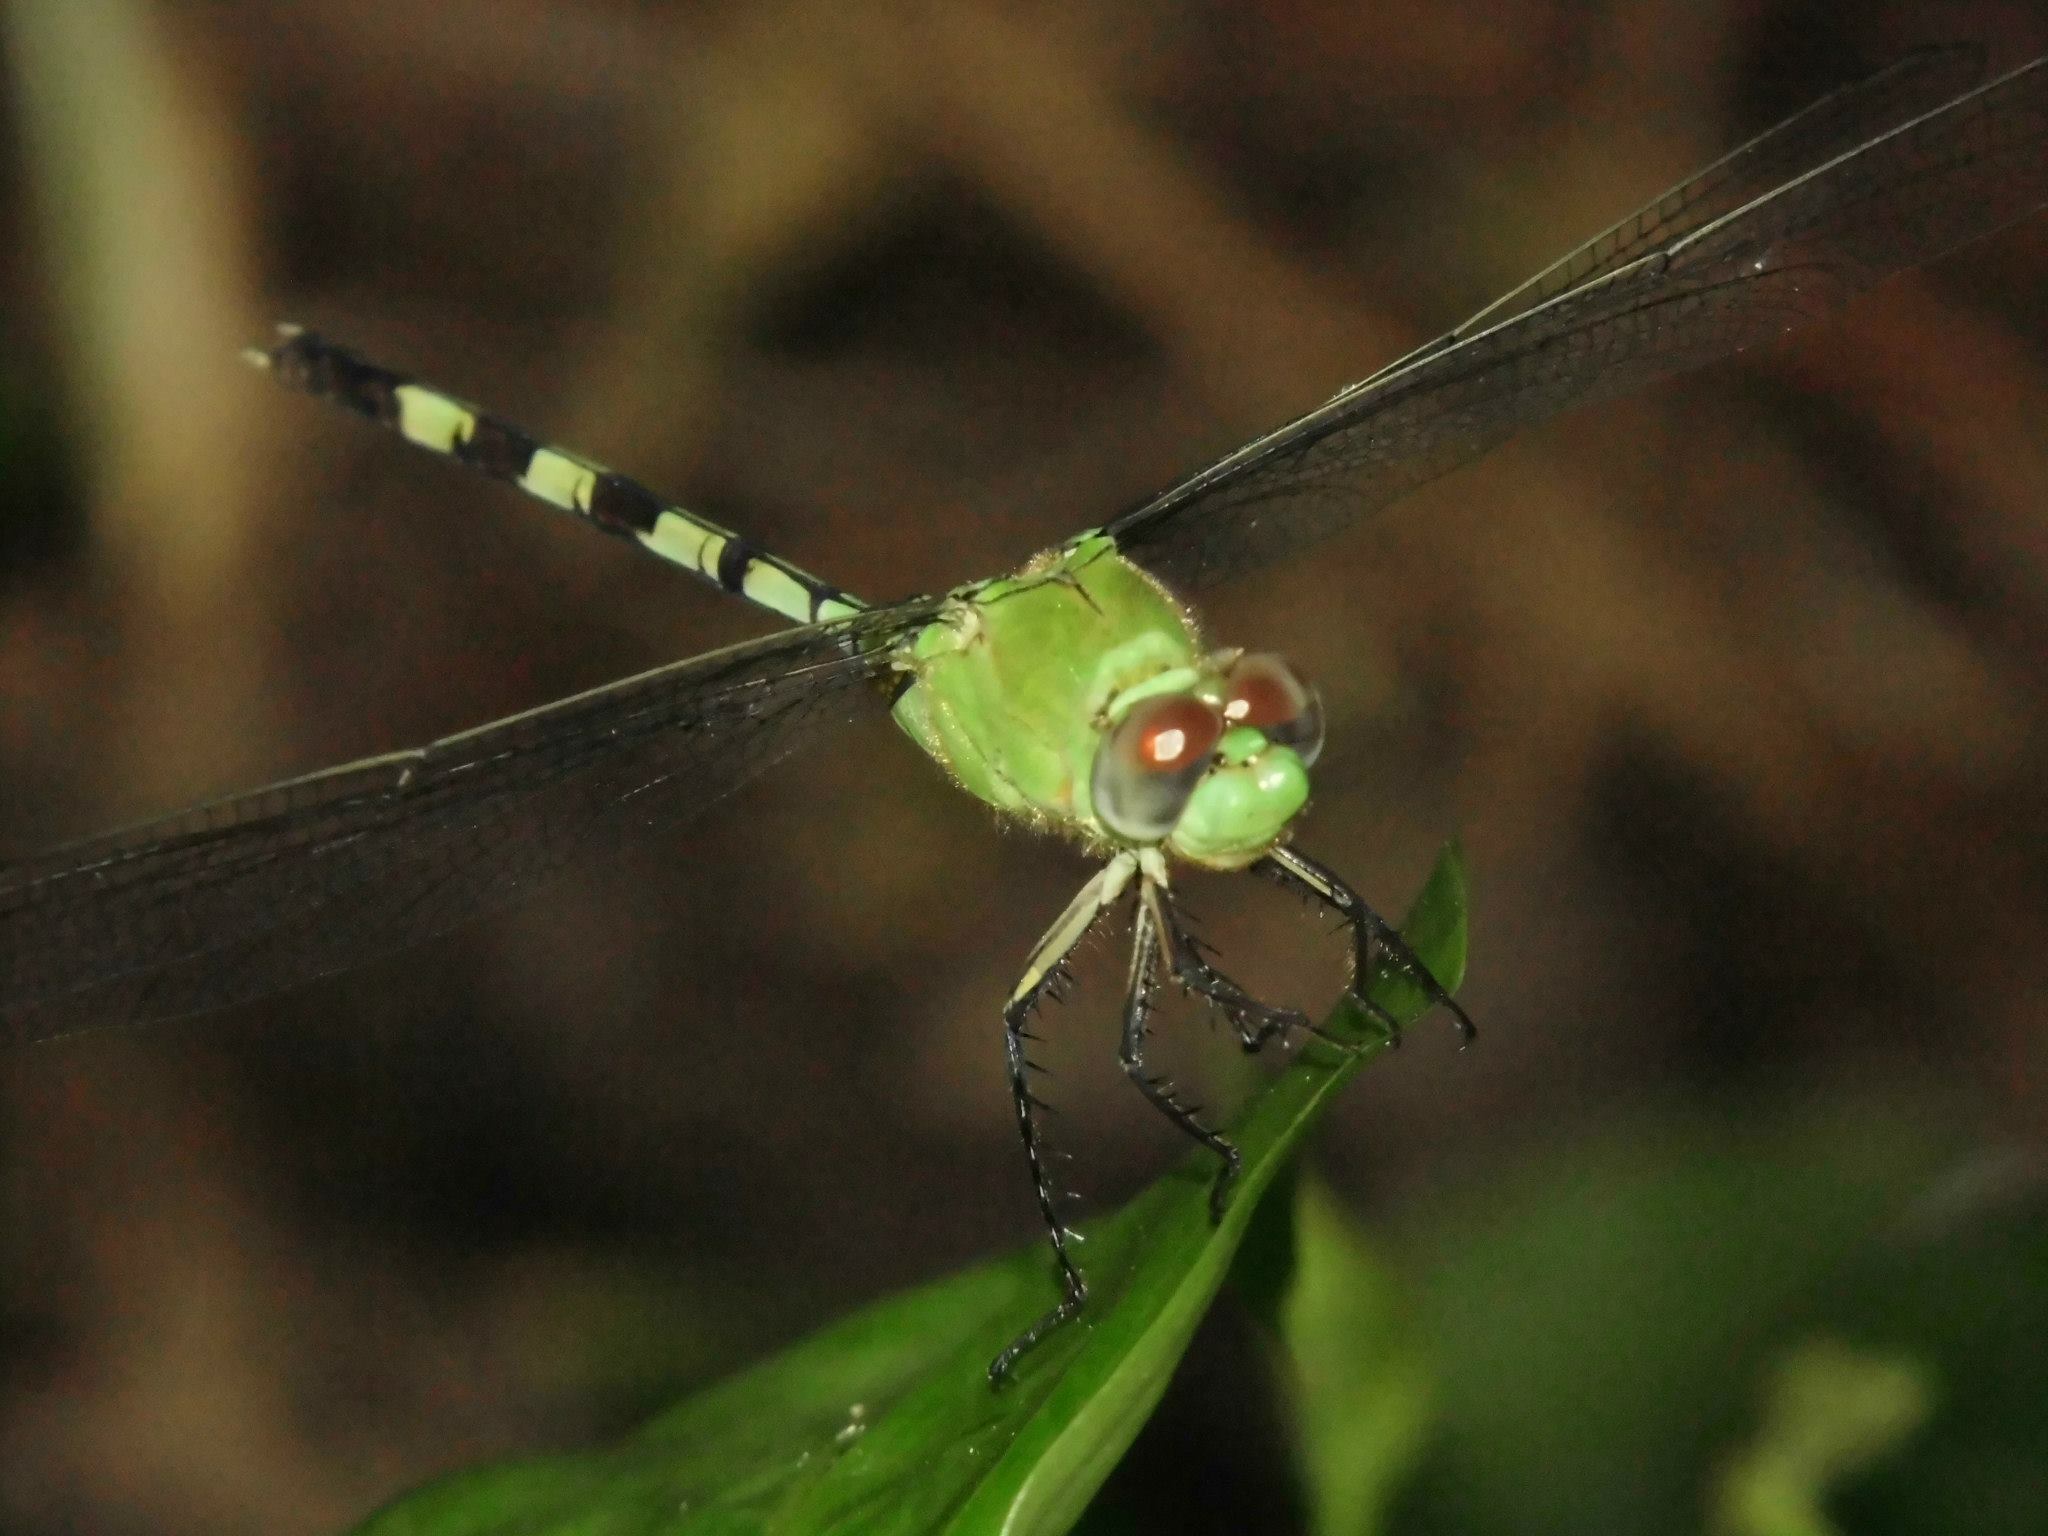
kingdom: Animalia
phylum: Arthropoda
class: Insecta
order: Odonata
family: Libellulidae
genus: Erythemis
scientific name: Erythemis vesiculosa
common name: Great pondhawk
